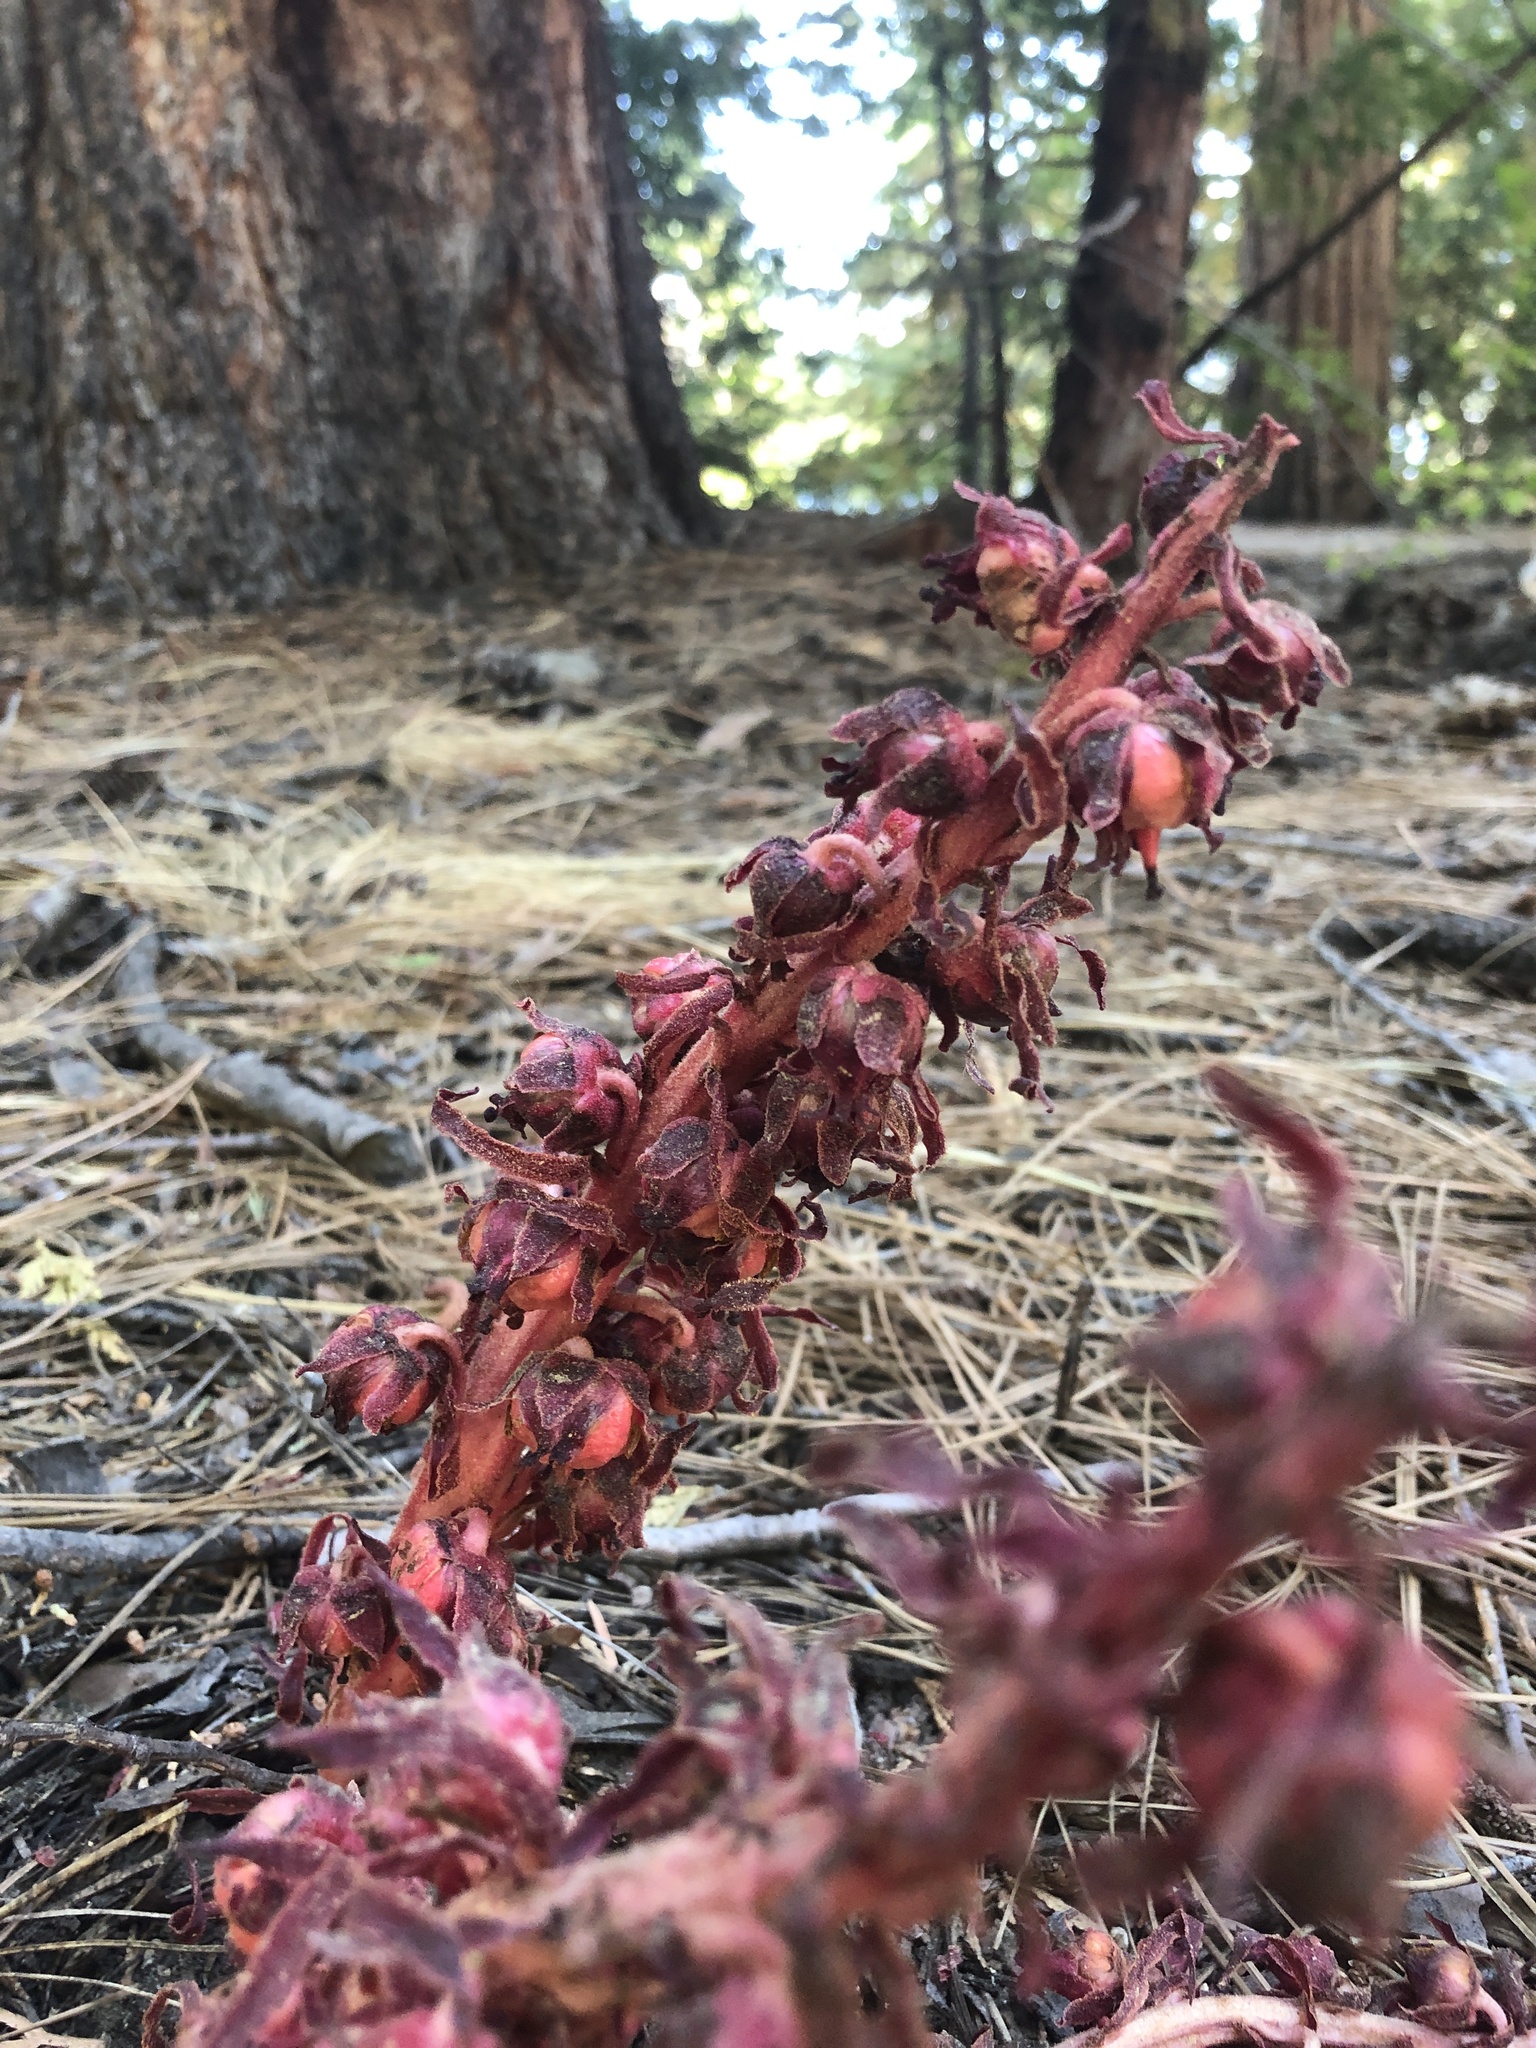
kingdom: Plantae
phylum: Tracheophyta
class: Magnoliopsida
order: Ericales
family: Ericaceae
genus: Sarcodes
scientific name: Sarcodes sanguinea
